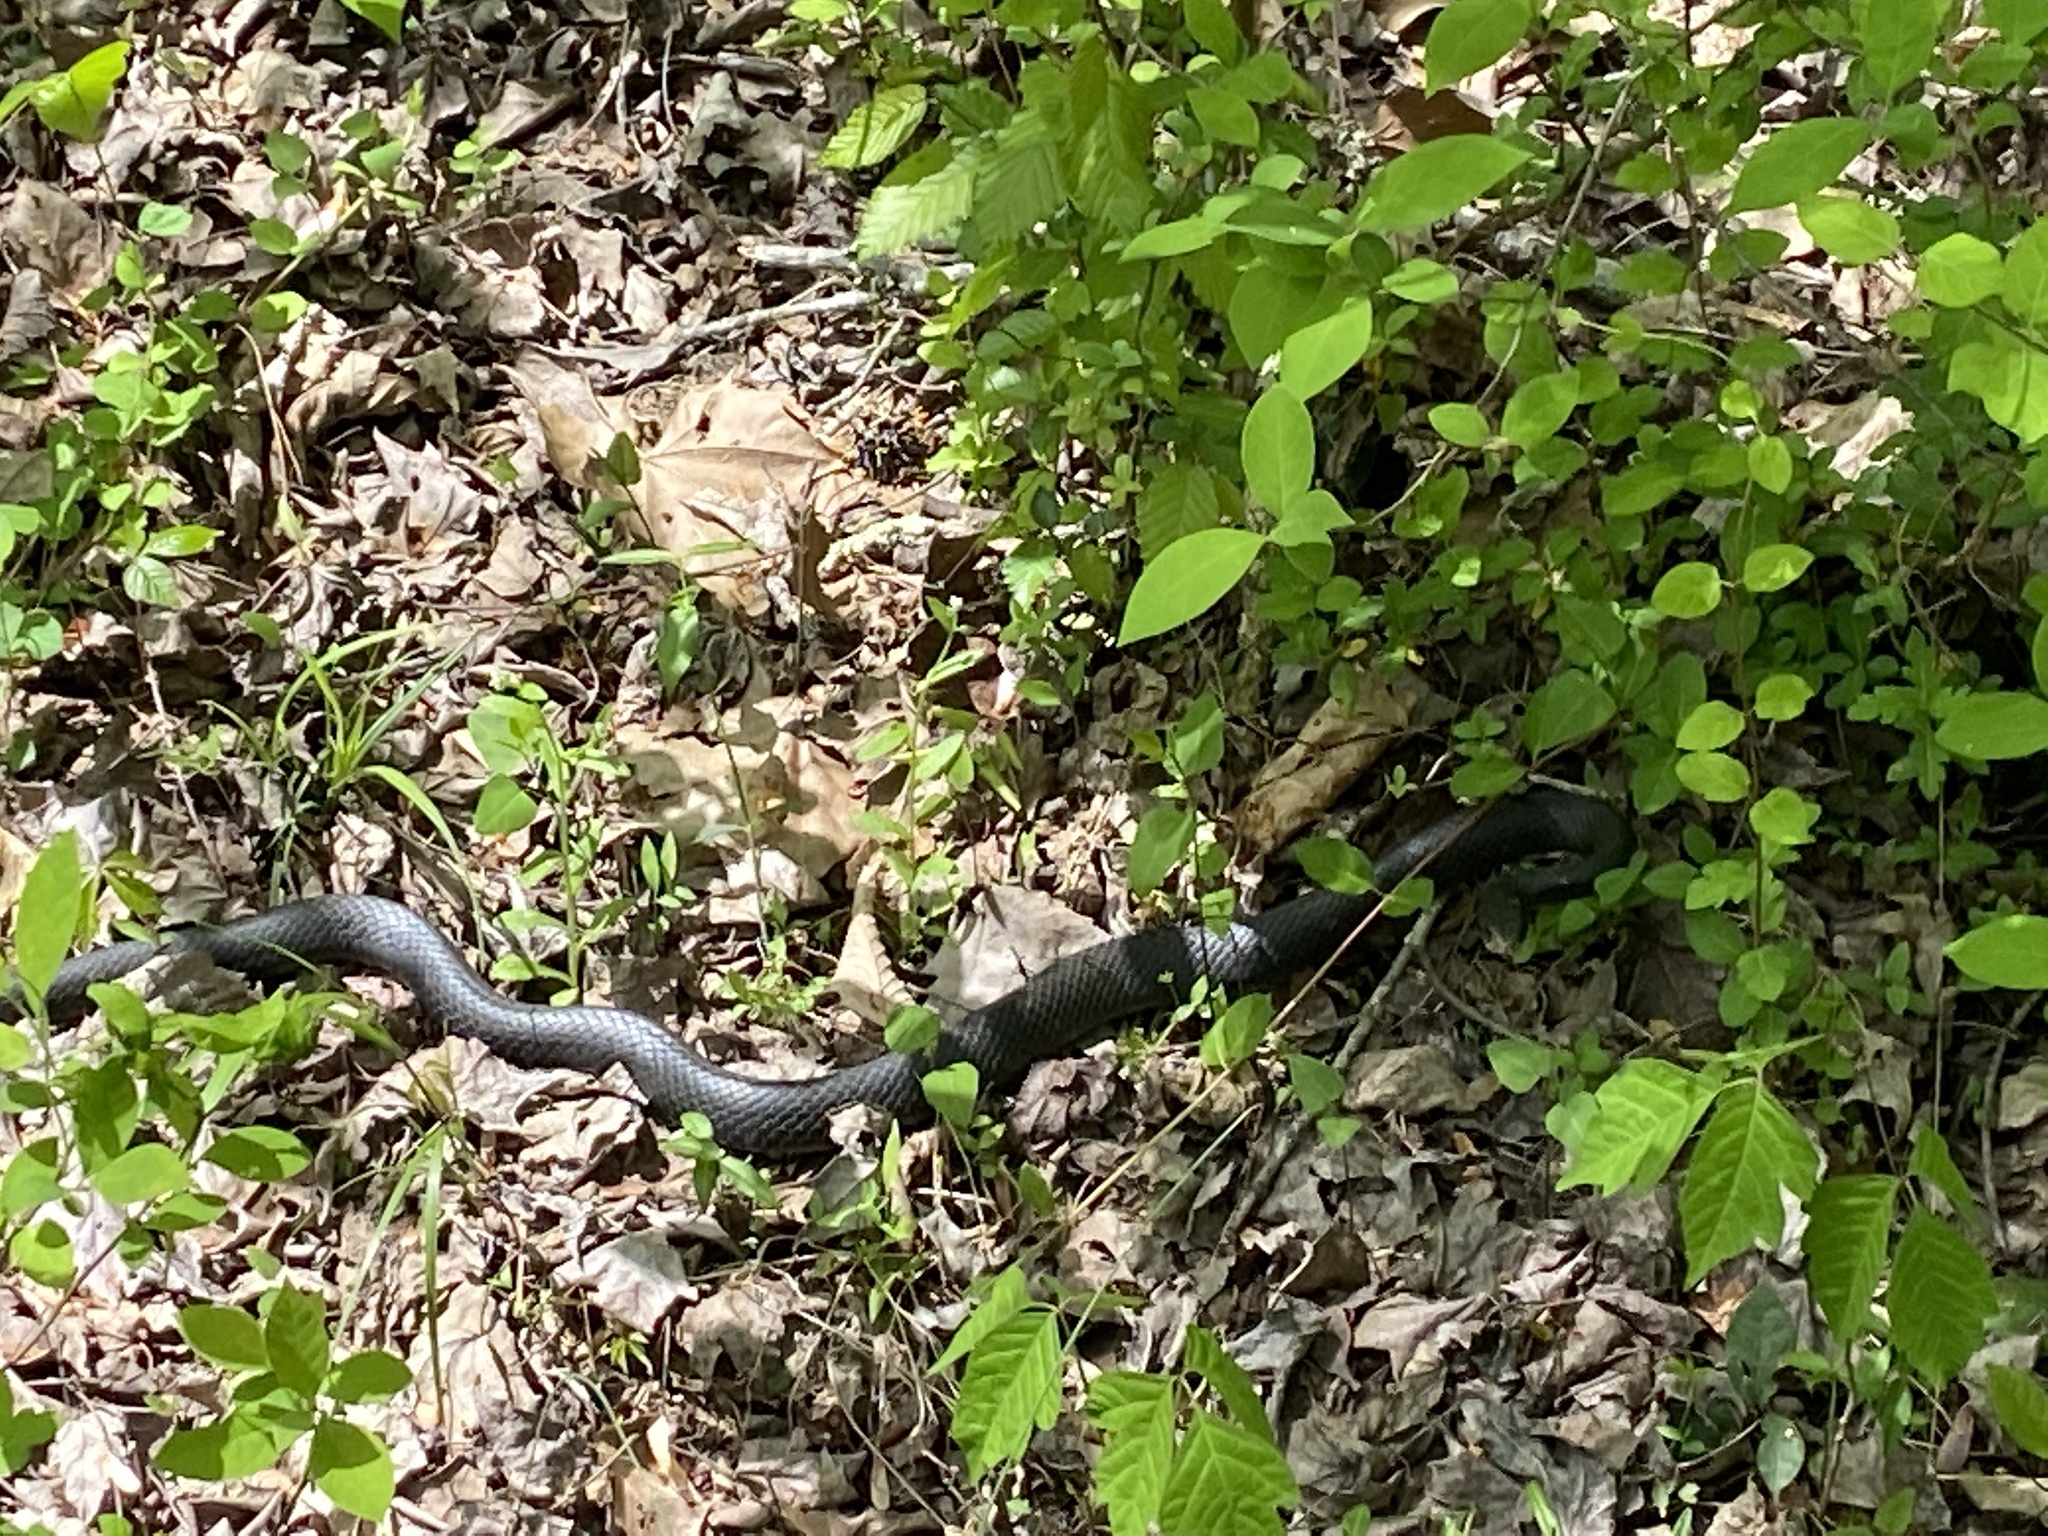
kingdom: Animalia
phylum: Chordata
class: Squamata
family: Colubridae
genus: Coluber
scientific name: Coluber constrictor
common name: Eastern racer
